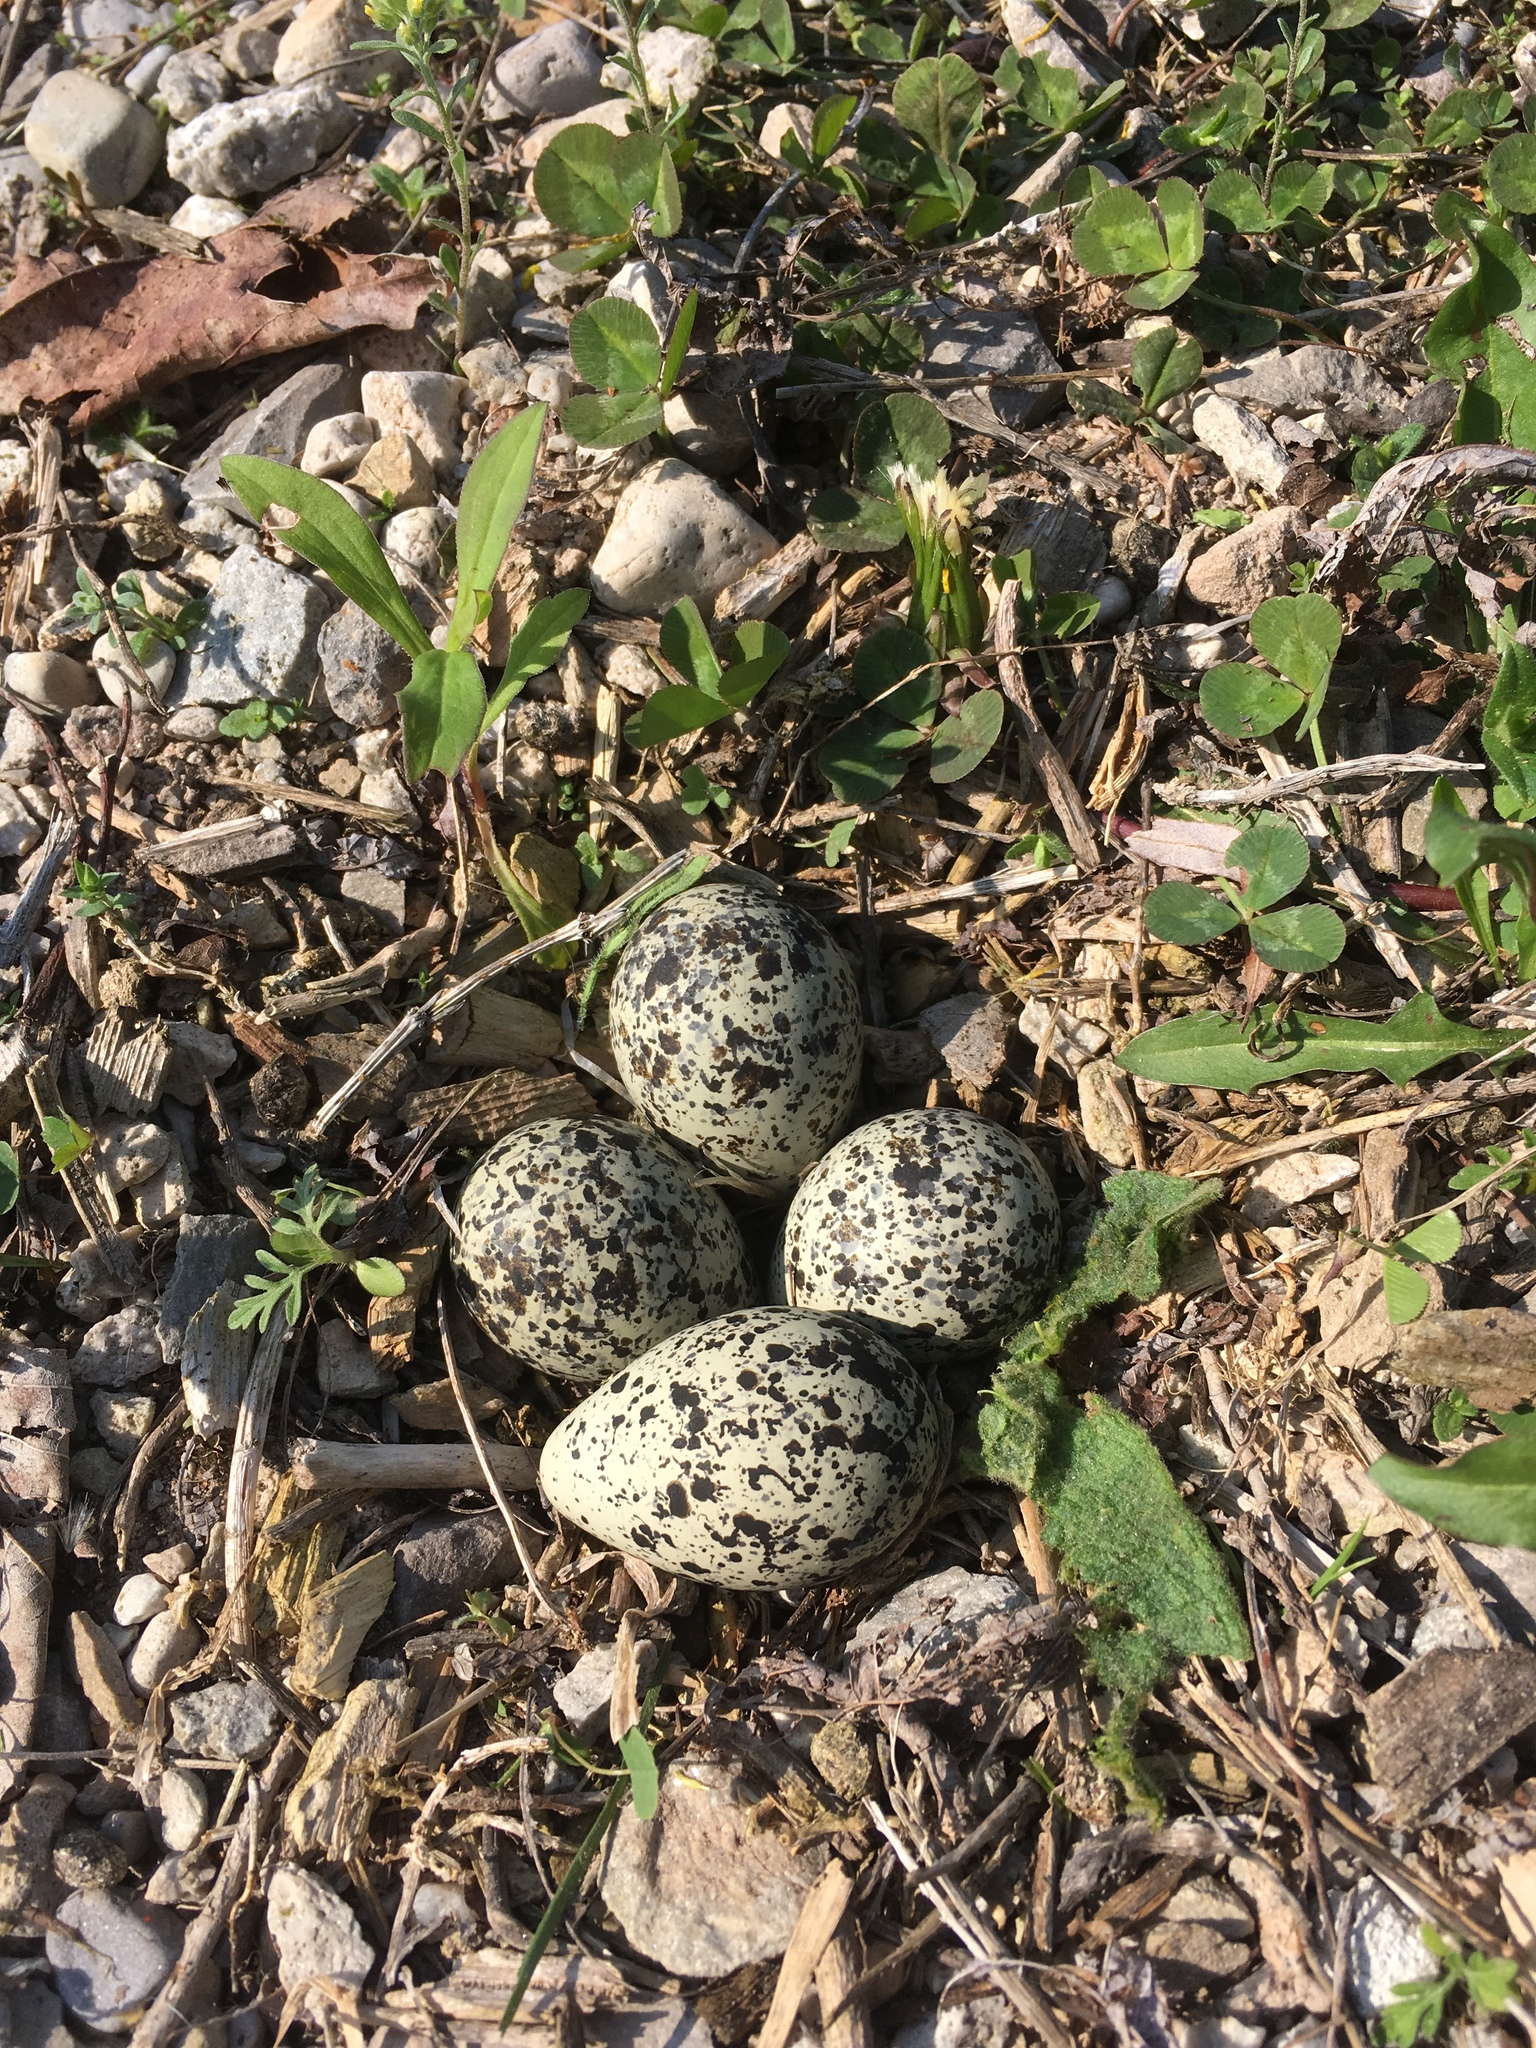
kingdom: Animalia
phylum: Chordata
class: Aves
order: Charadriiformes
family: Charadriidae
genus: Charadrius
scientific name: Charadrius vociferus
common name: Killdeer
